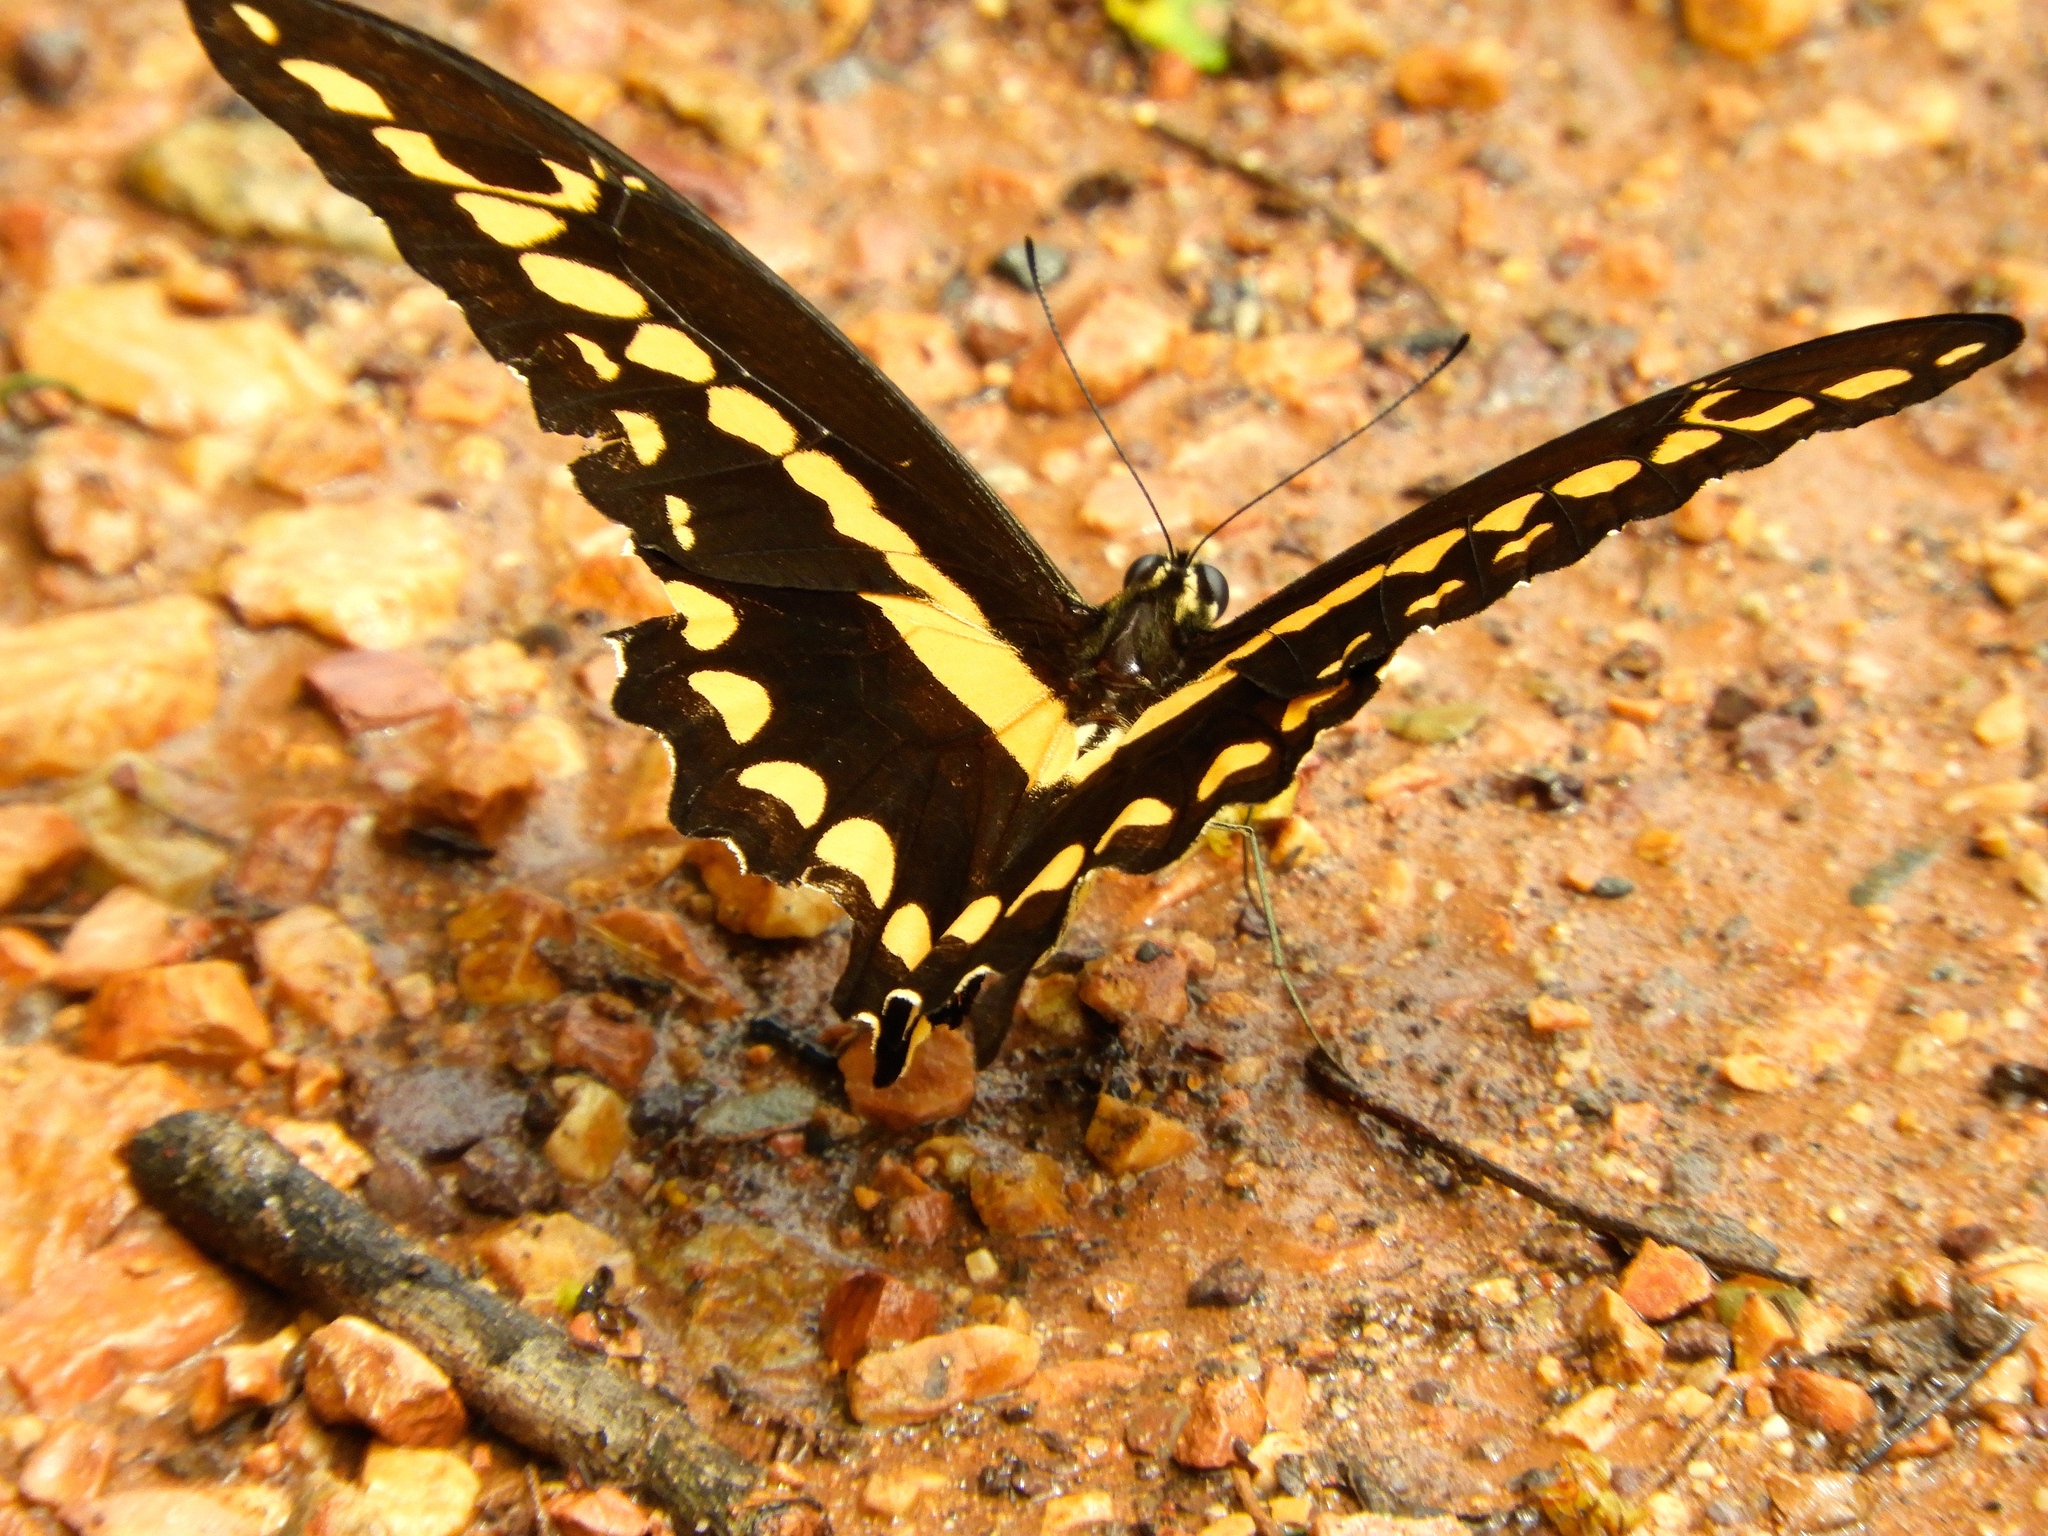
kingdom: Animalia
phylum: Arthropoda
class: Insecta
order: Lepidoptera
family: Papilionidae
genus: Papilio
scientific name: Papilio rumiko
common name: Western giant swallowtail
